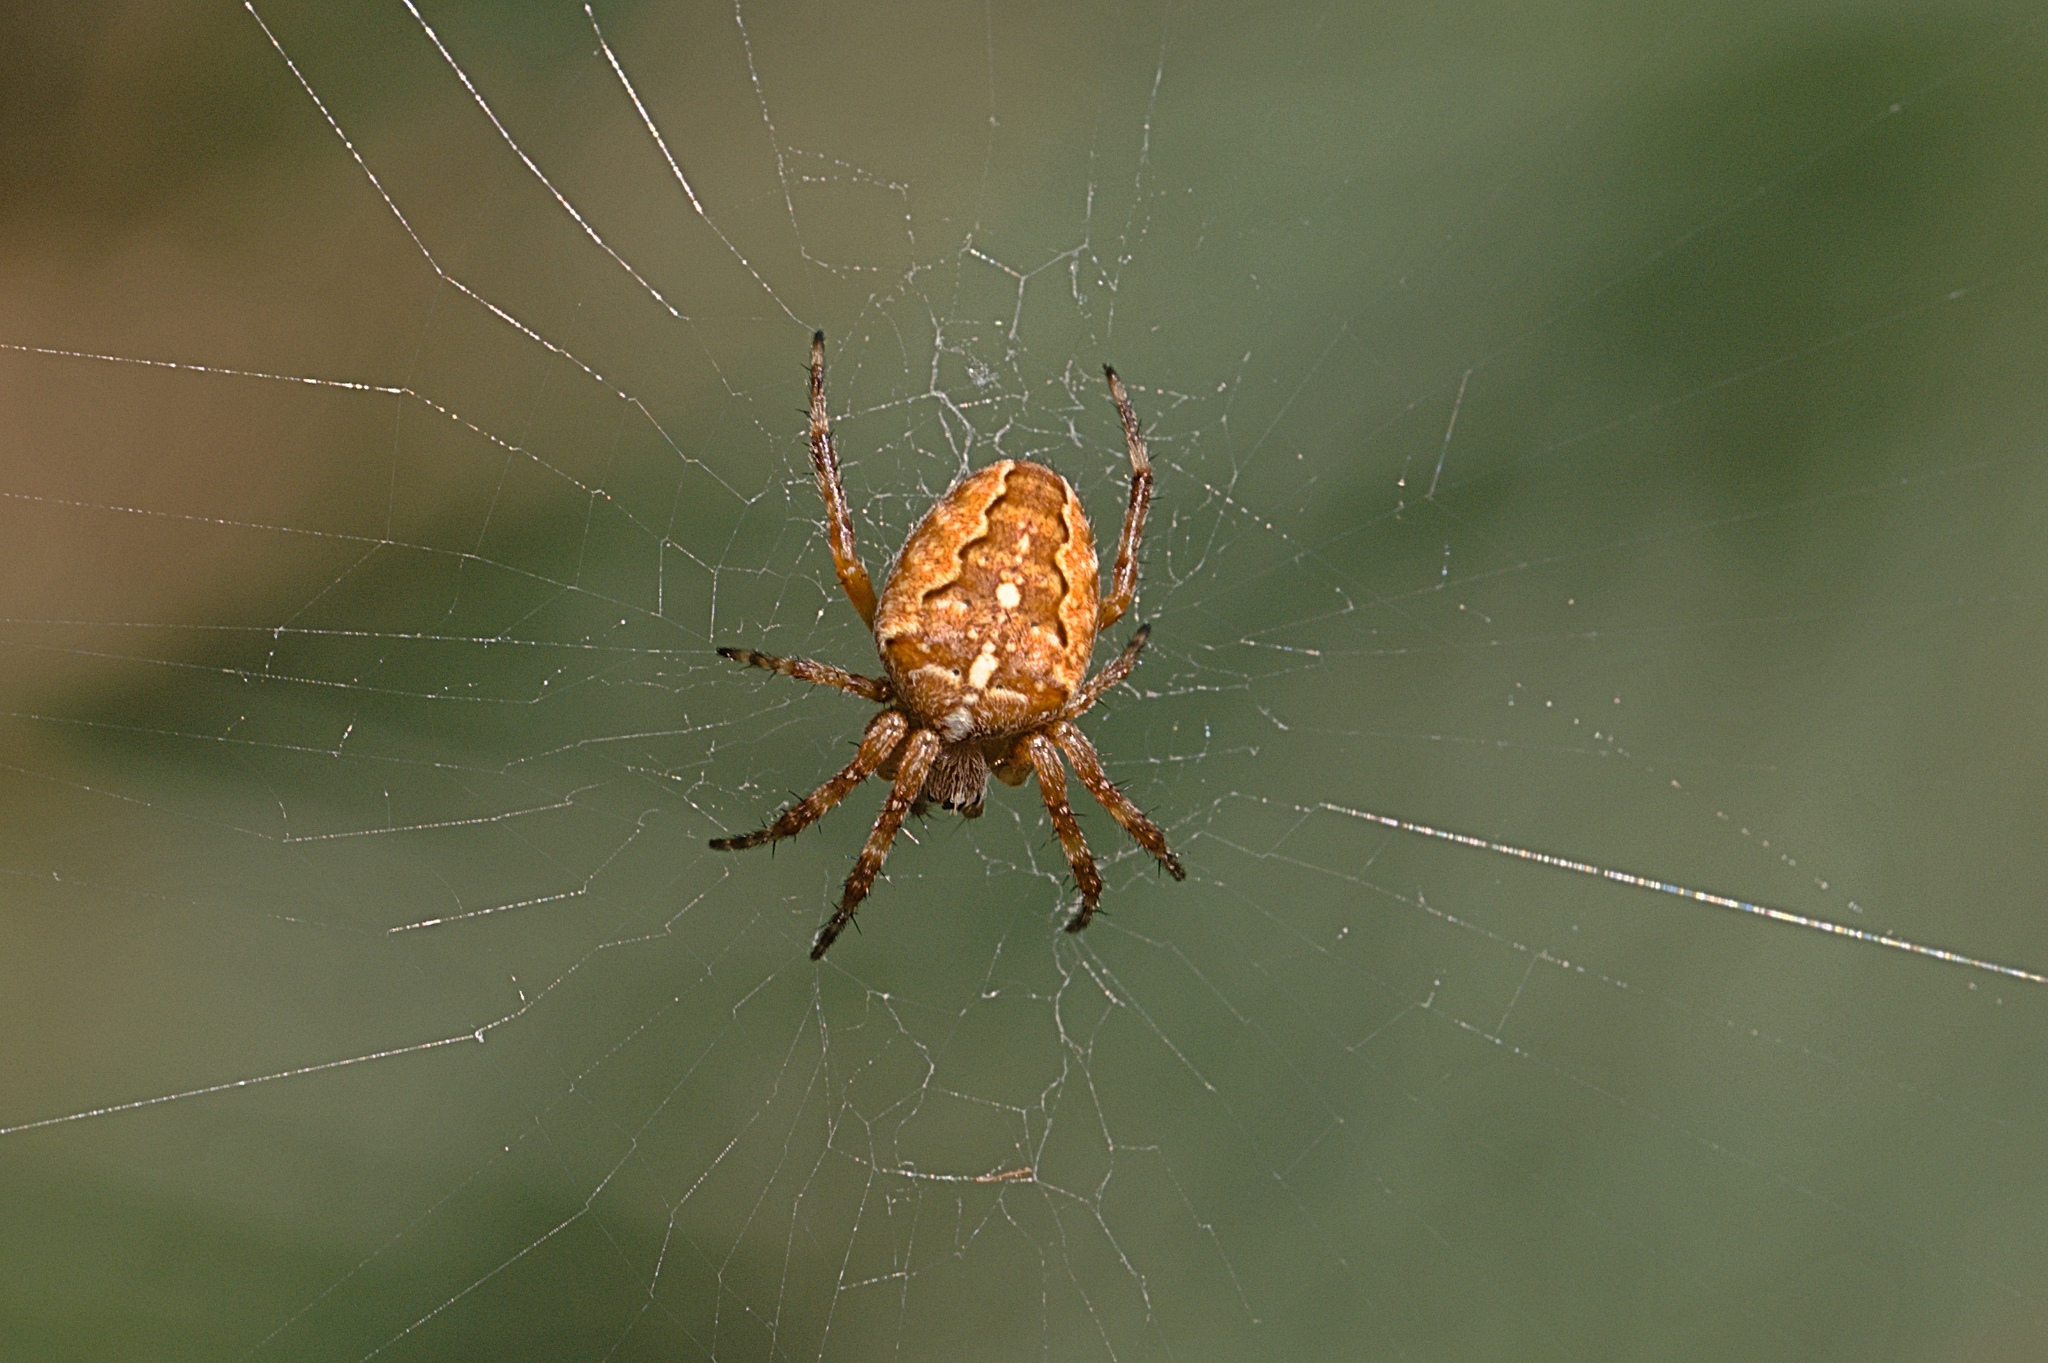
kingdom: Animalia
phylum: Arthropoda
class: Arachnida
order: Araneae
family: Araneidae
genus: Araneus
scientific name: Araneus diadematus
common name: Cross orbweaver
